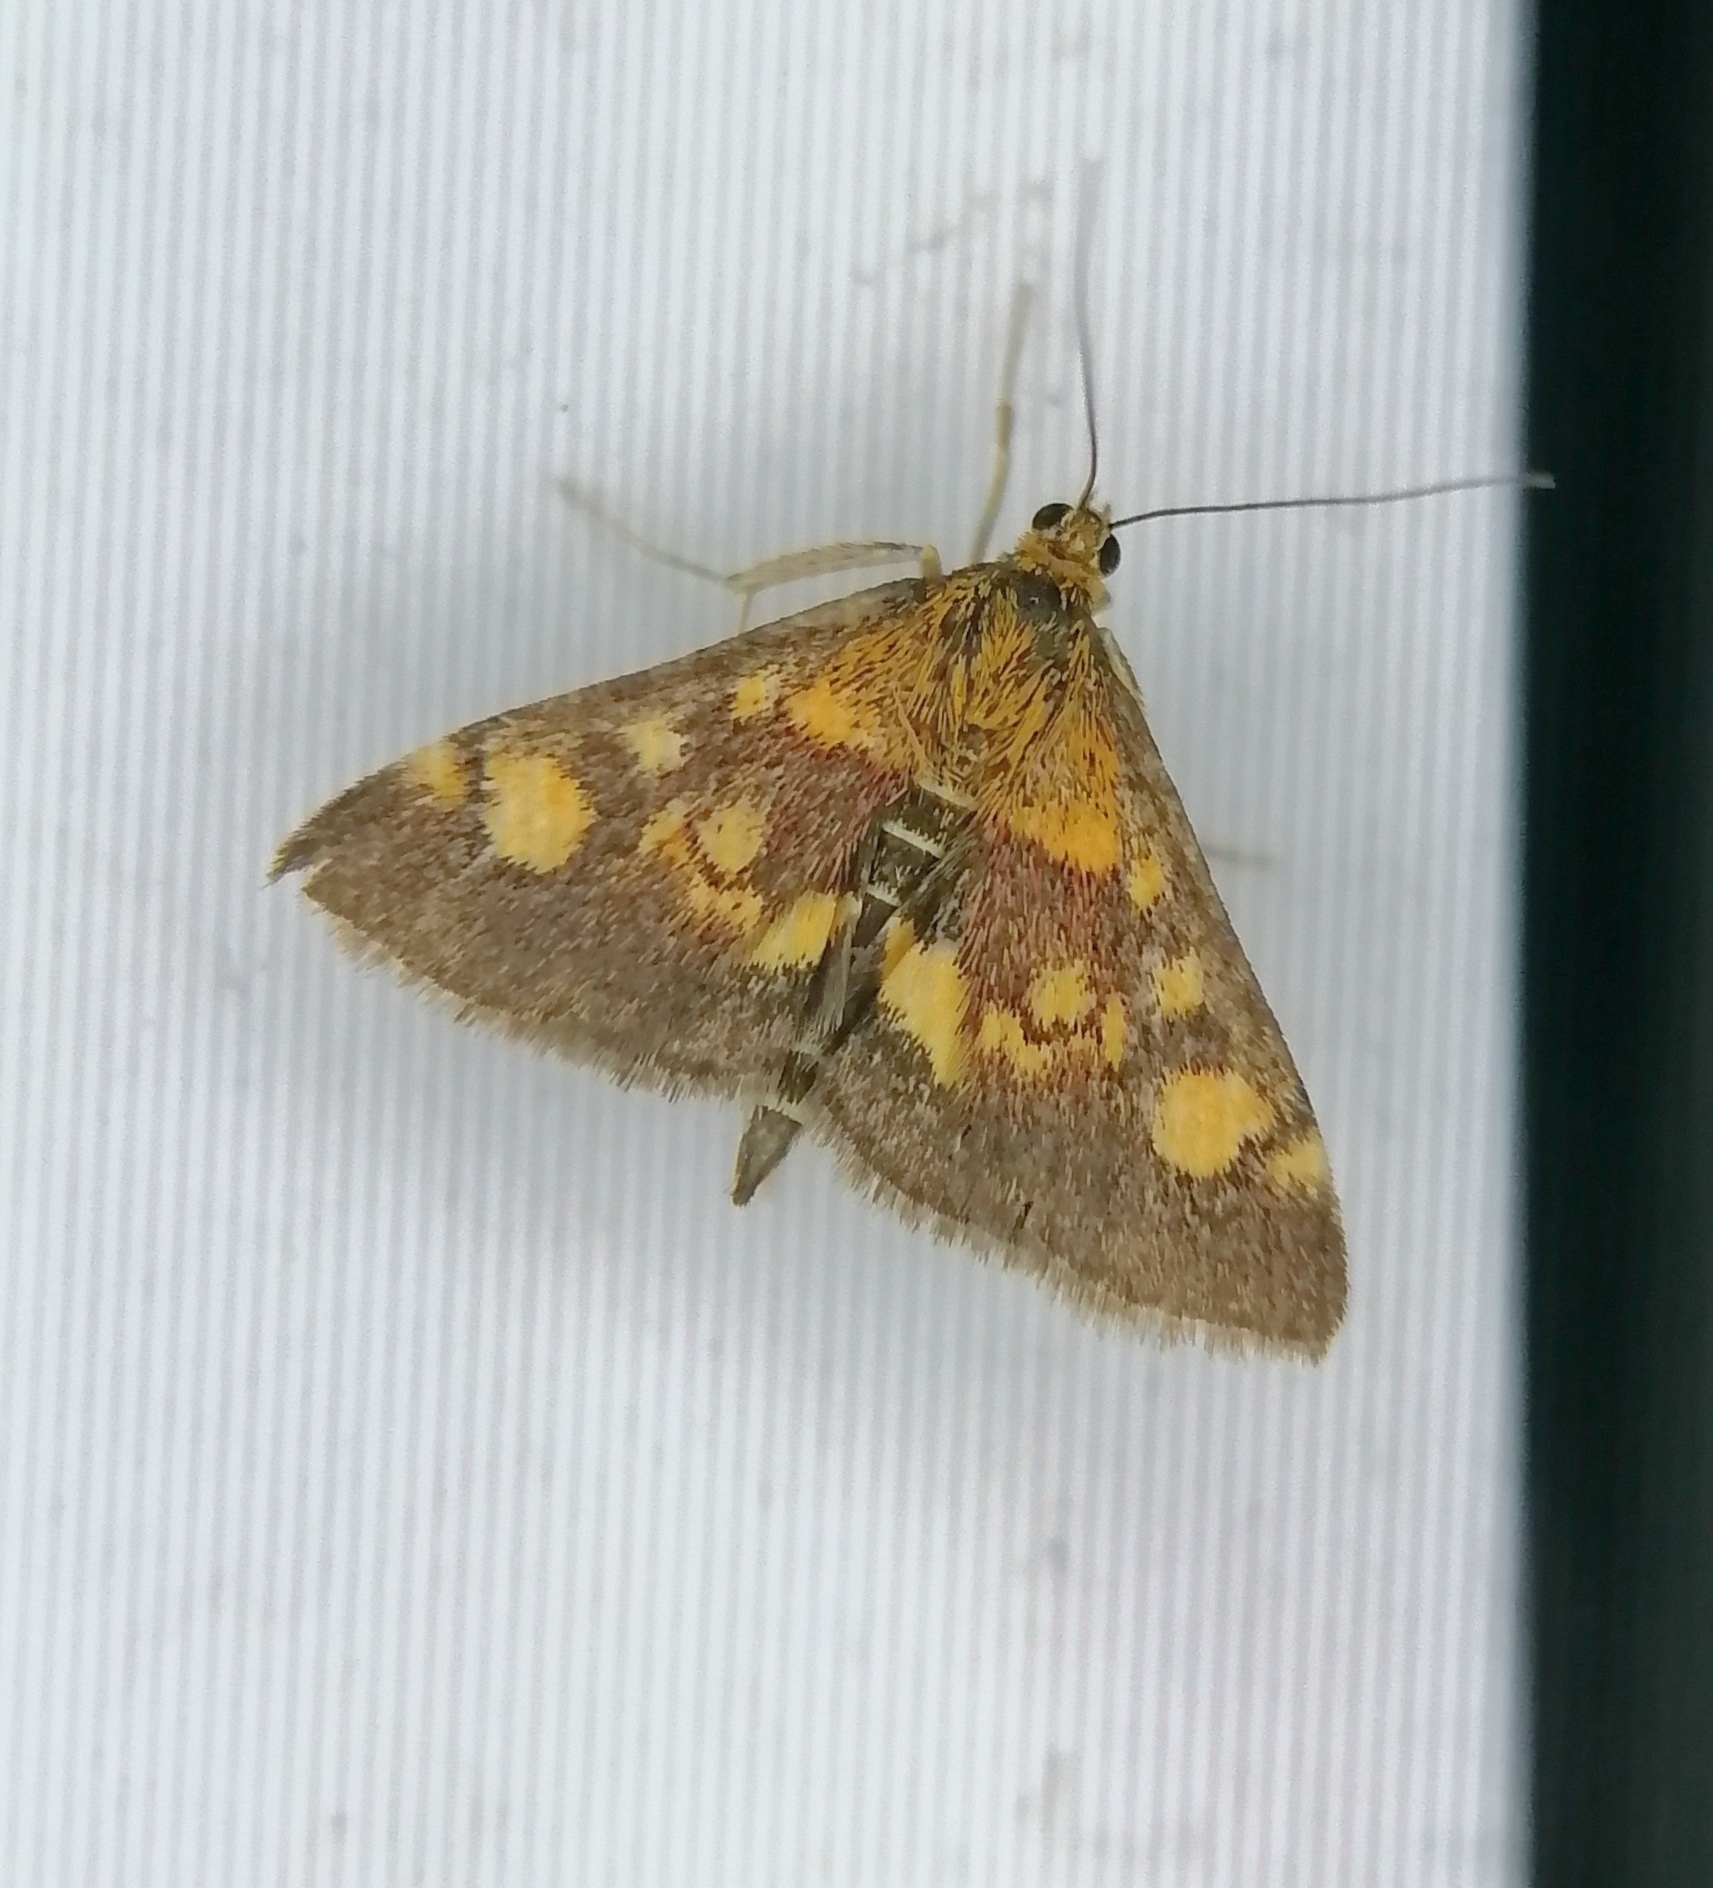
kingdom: Animalia
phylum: Arthropoda
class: Insecta
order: Lepidoptera
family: Crambidae
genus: Pyrausta
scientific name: Pyrausta aurata
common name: Small purple & gold
